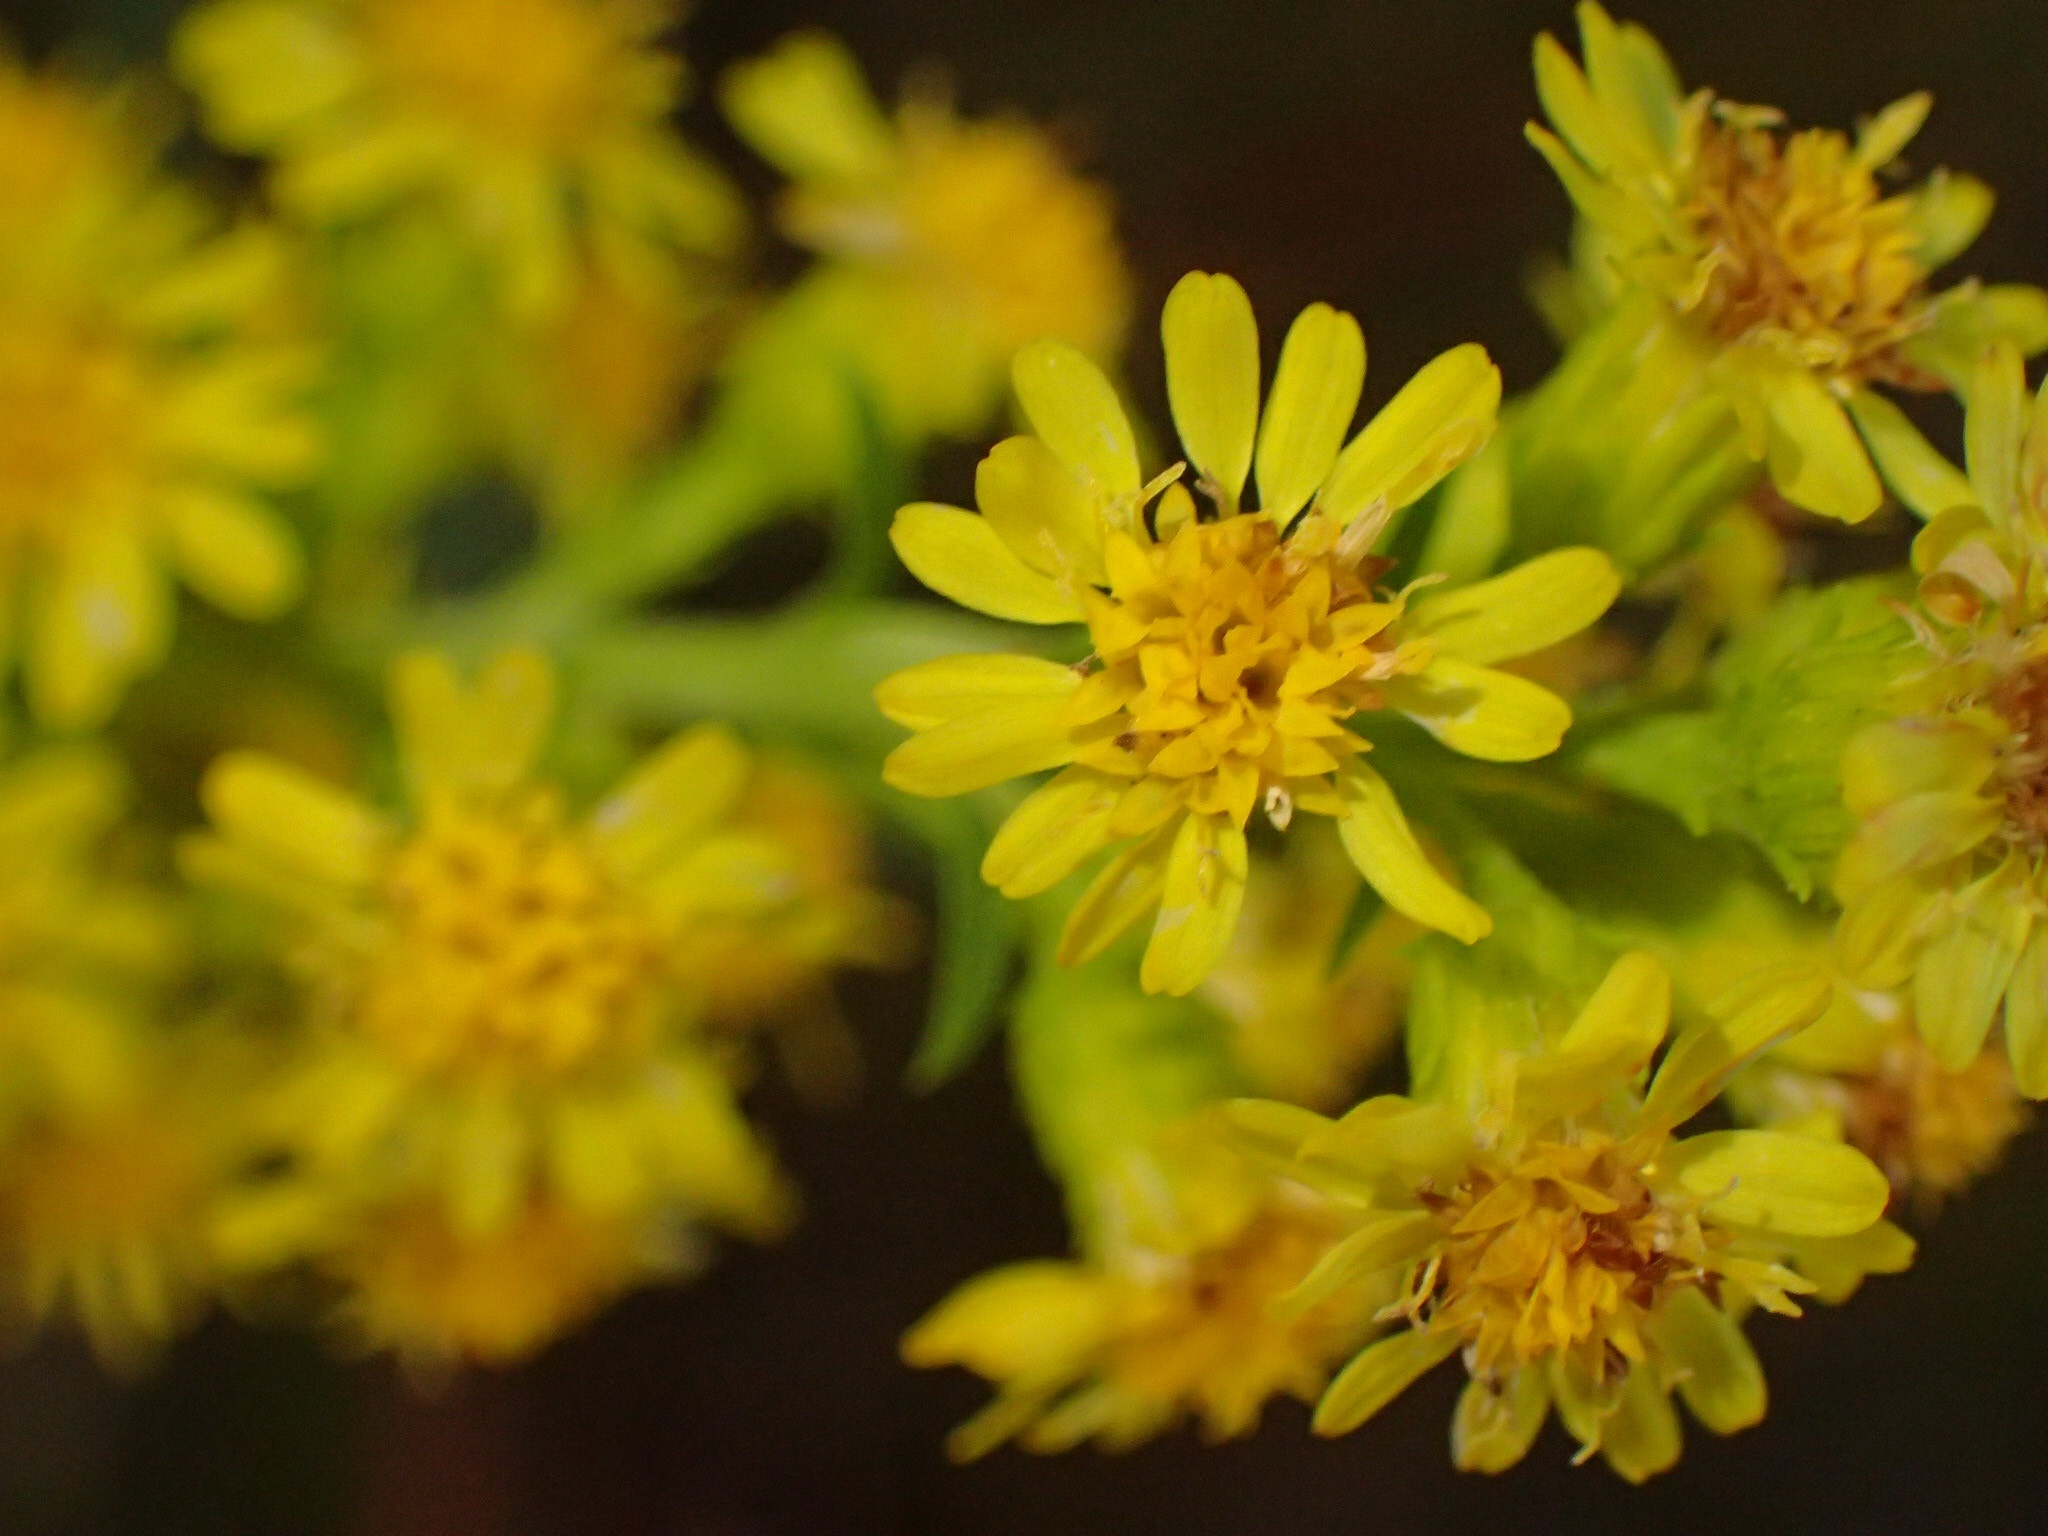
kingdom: Plantae
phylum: Tracheophyta
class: Magnoliopsida
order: Asterales
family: Asteraceae
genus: Solidago
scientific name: Solidago puberula
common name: Downy goldenrod
